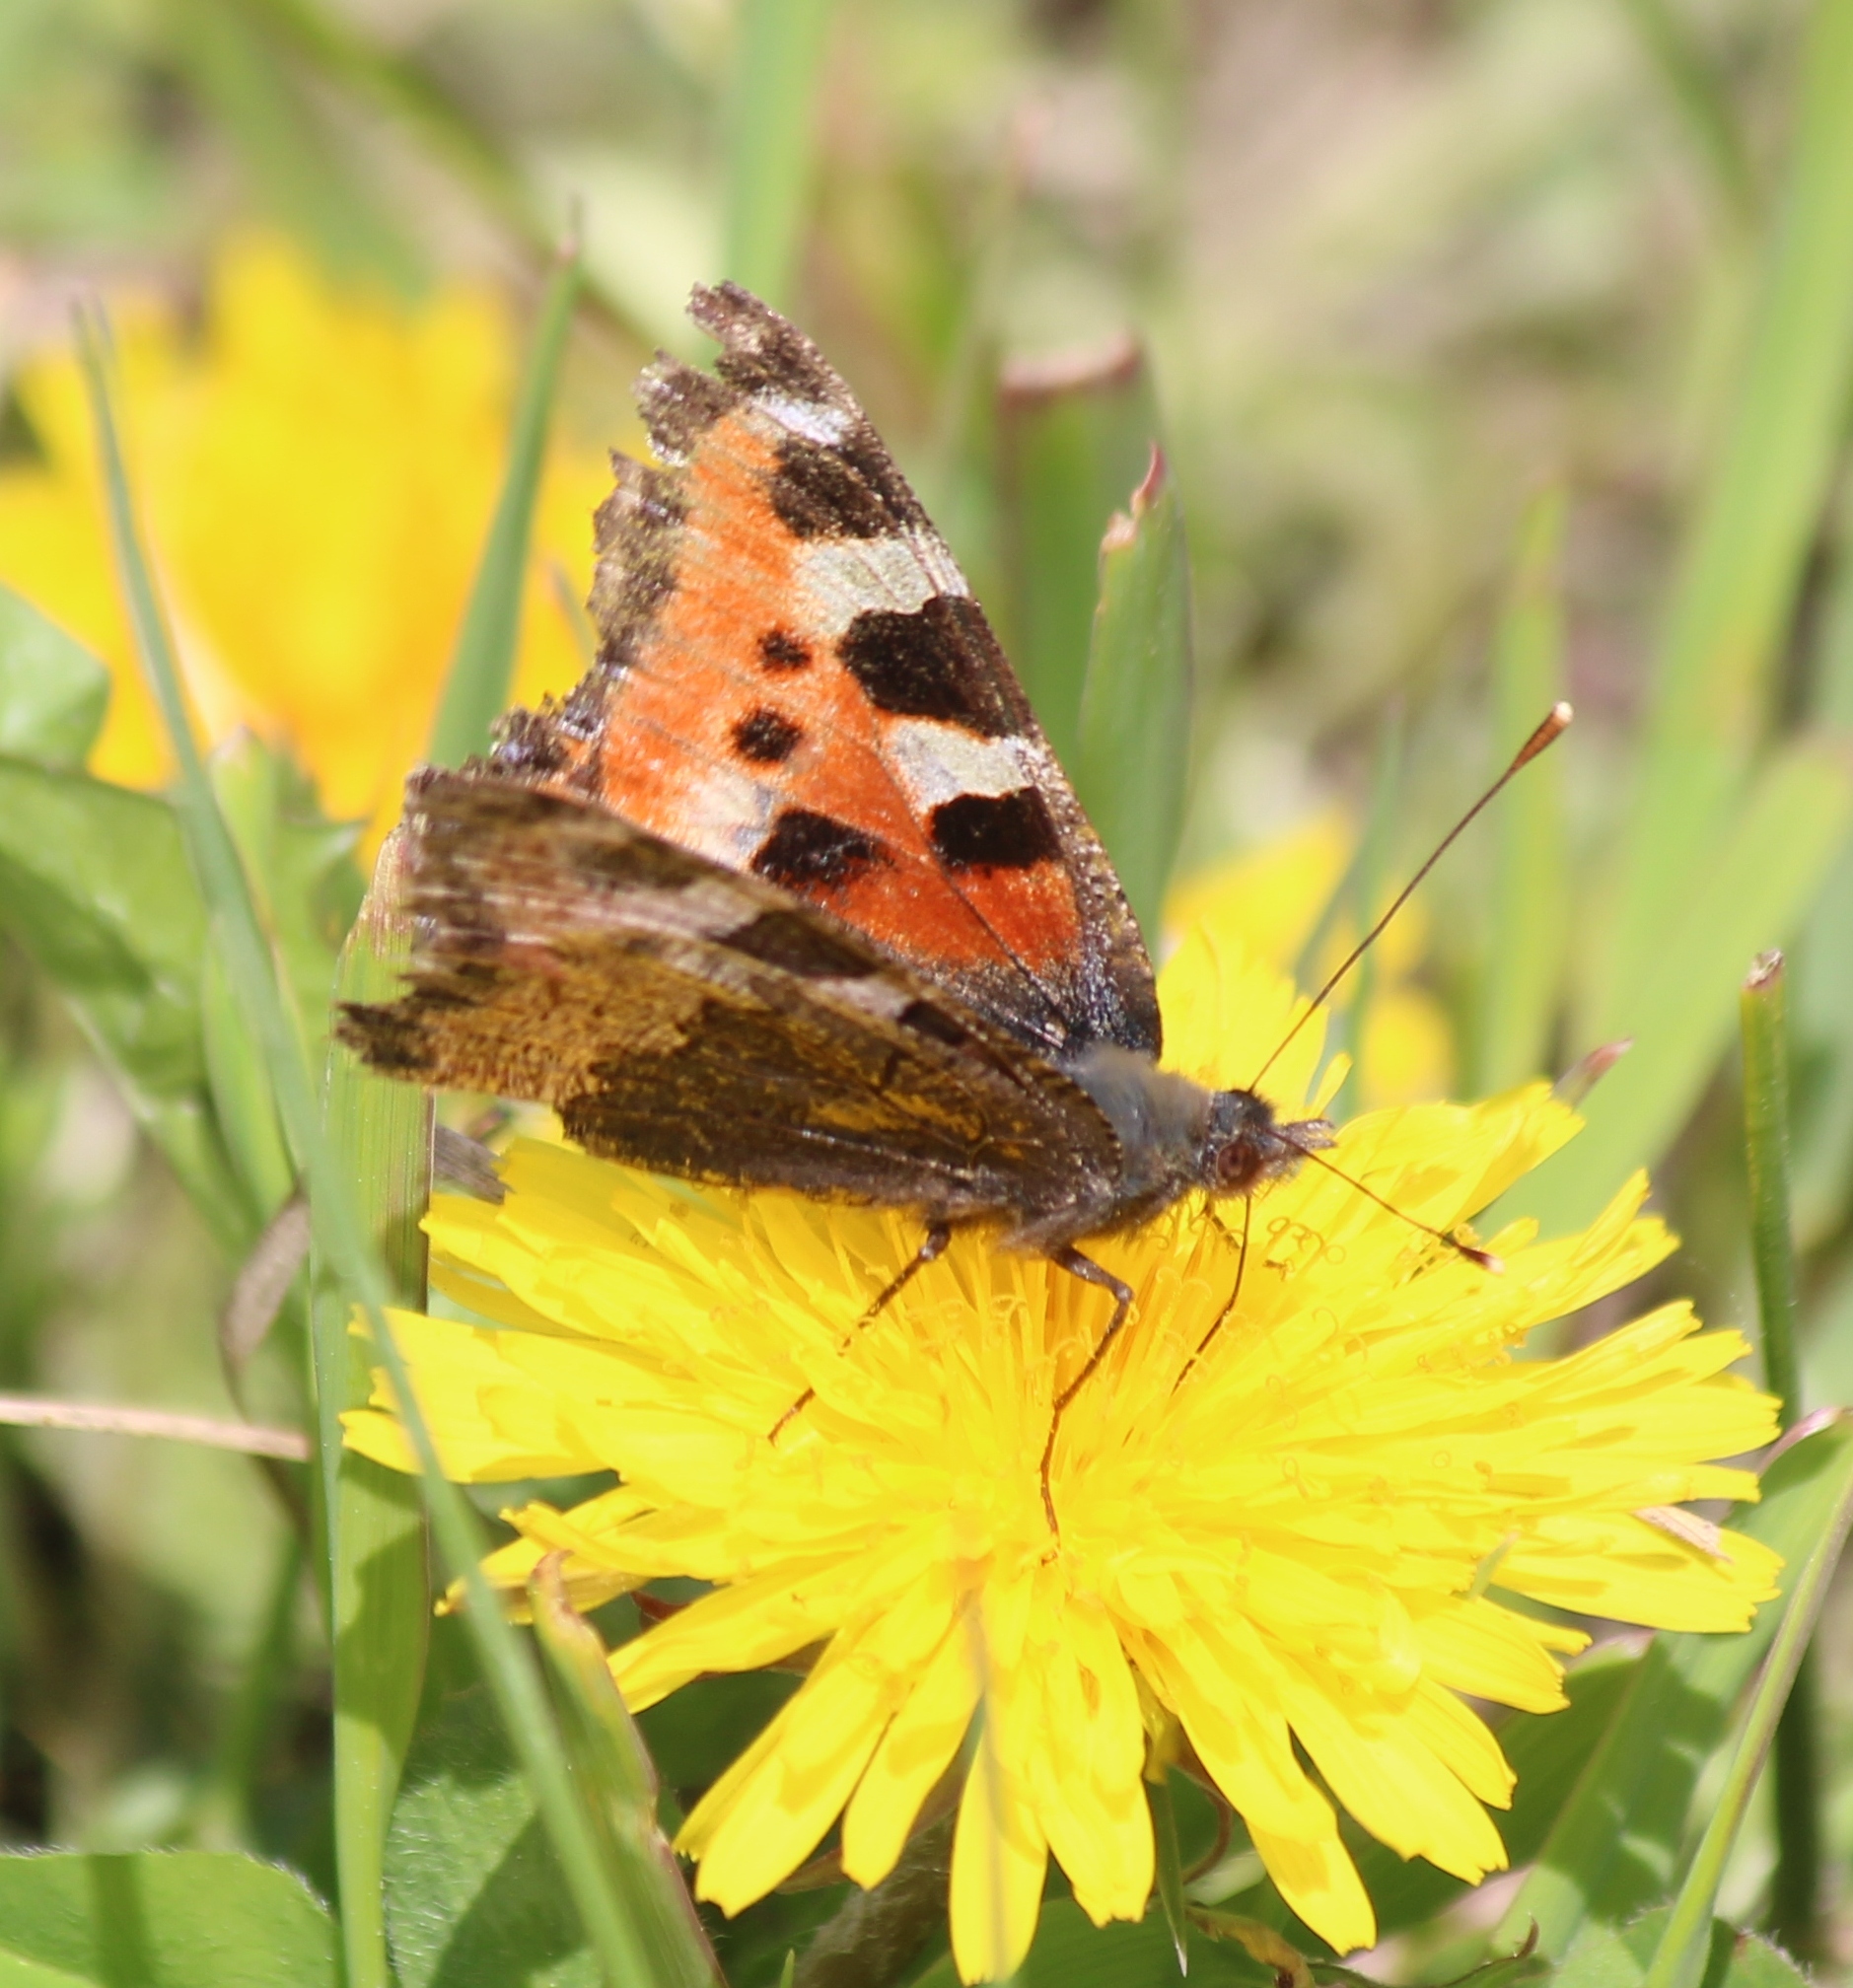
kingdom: Animalia
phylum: Arthropoda
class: Insecta
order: Lepidoptera
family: Nymphalidae
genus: Aglais
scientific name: Aglais urticae
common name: Small tortoiseshell
